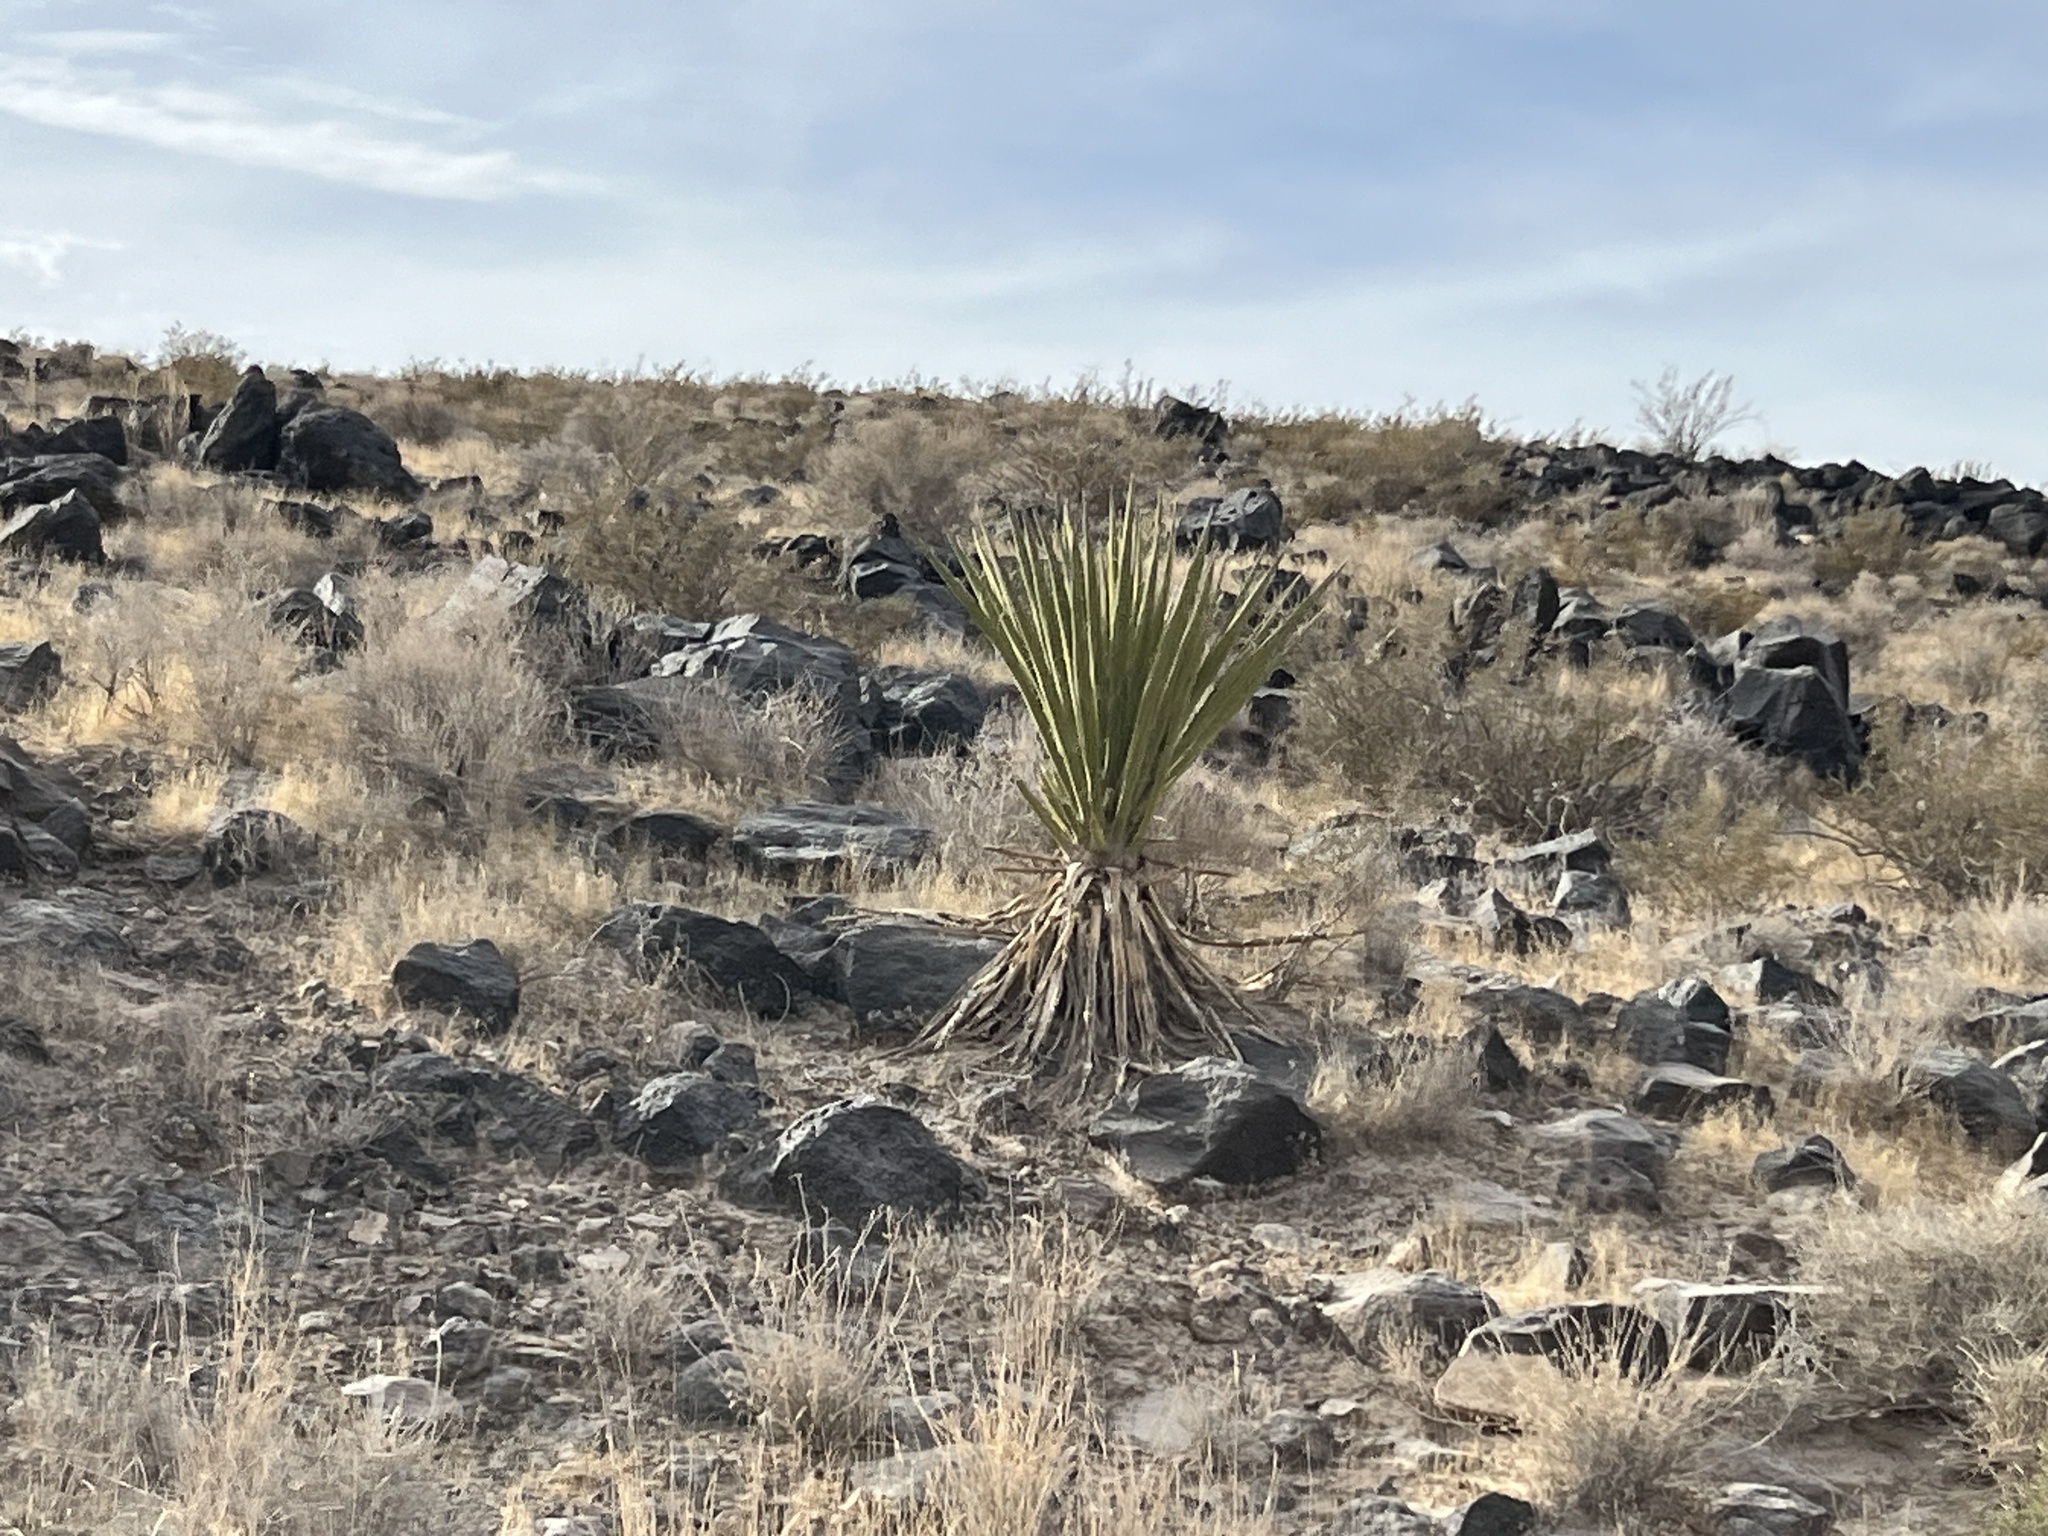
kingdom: Plantae
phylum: Tracheophyta
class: Liliopsida
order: Asparagales
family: Asparagaceae
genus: Yucca
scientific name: Yucca schidigera
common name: Mojave yucca
